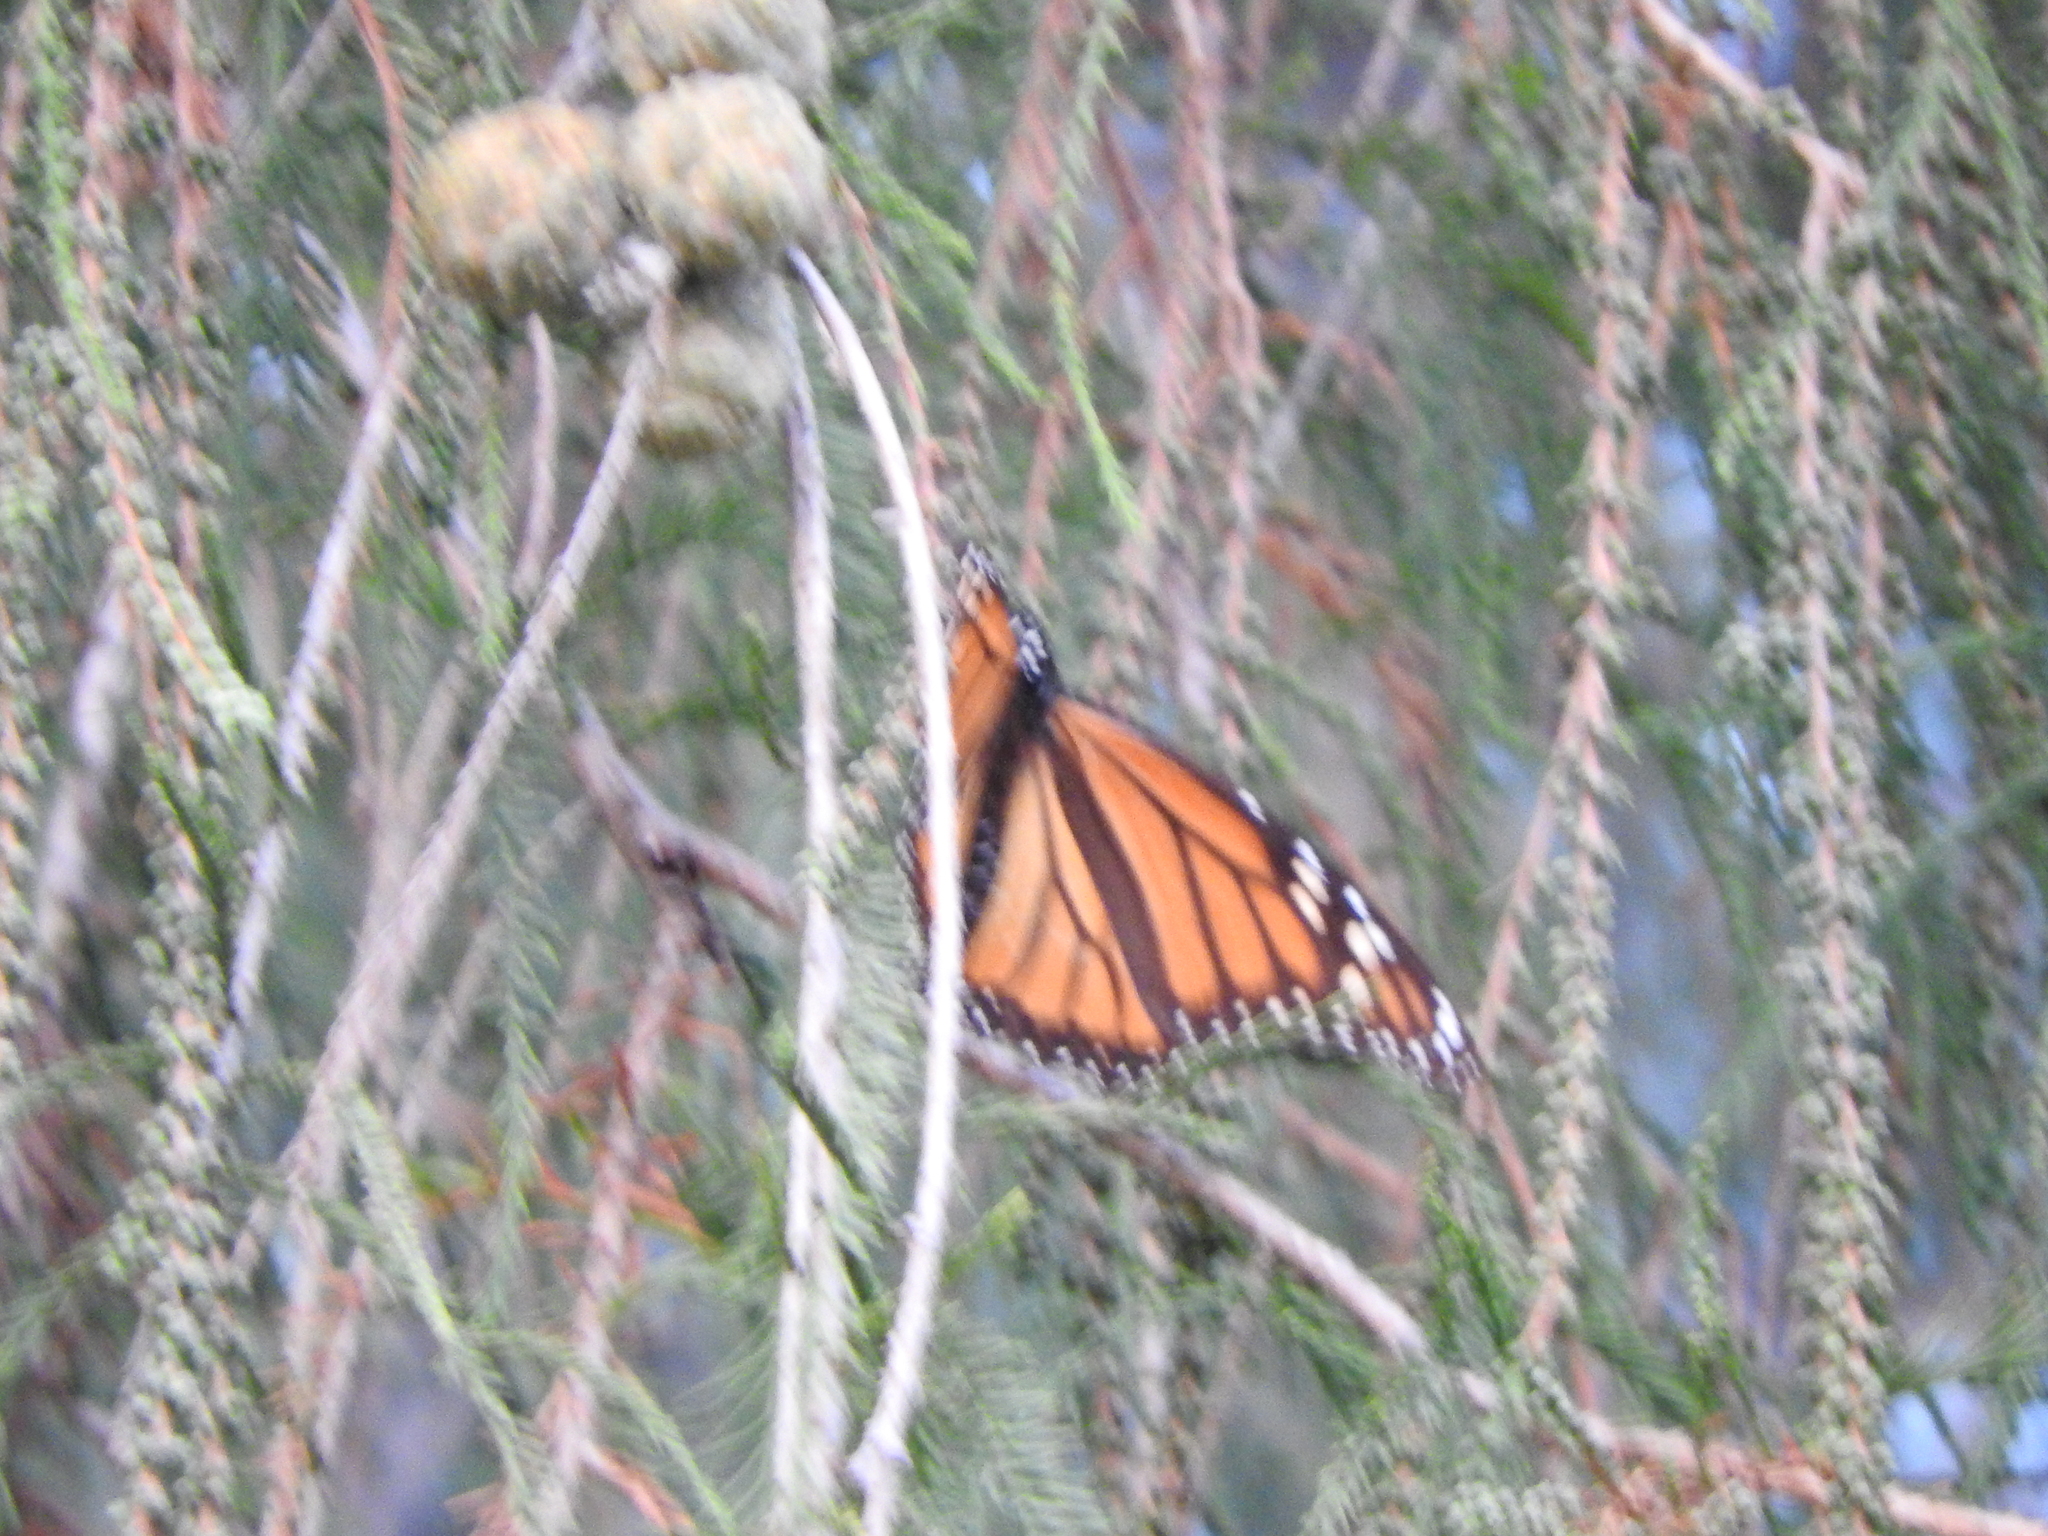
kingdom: Animalia
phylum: Arthropoda
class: Insecta
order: Lepidoptera
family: Nymphalidae
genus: Danaus
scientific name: Danaus plexippus
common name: Monarch
